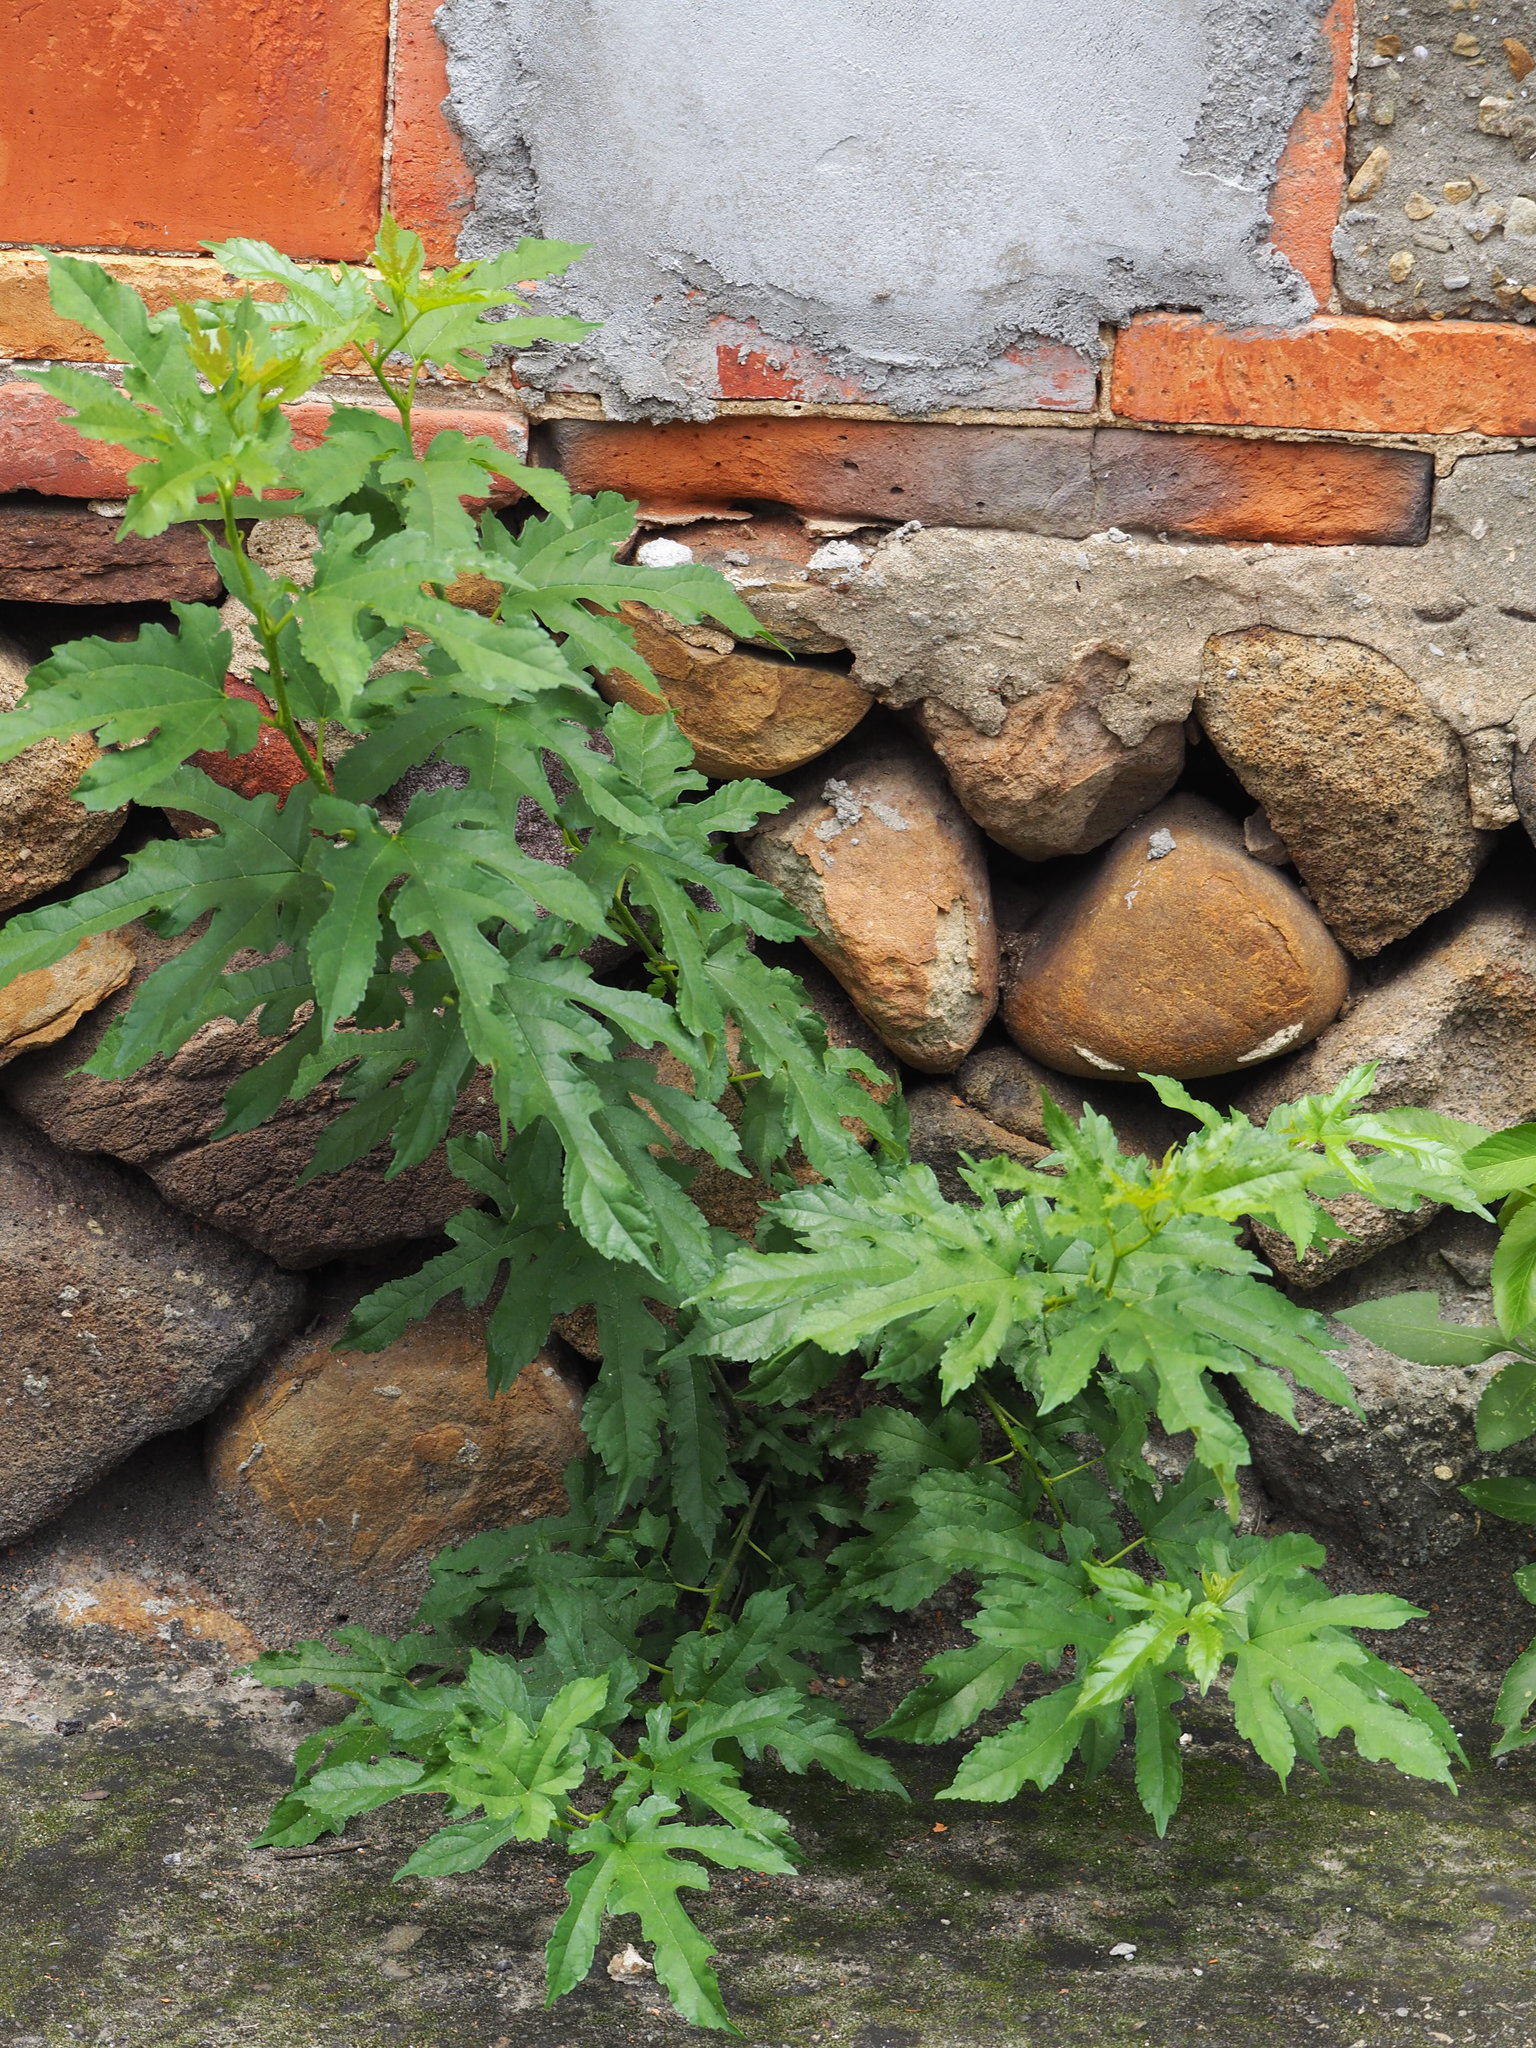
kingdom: Plantae
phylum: Tracheophyta
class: Magnoliopsida
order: Rosales
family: Moraceae
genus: Morus
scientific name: Morus indica
